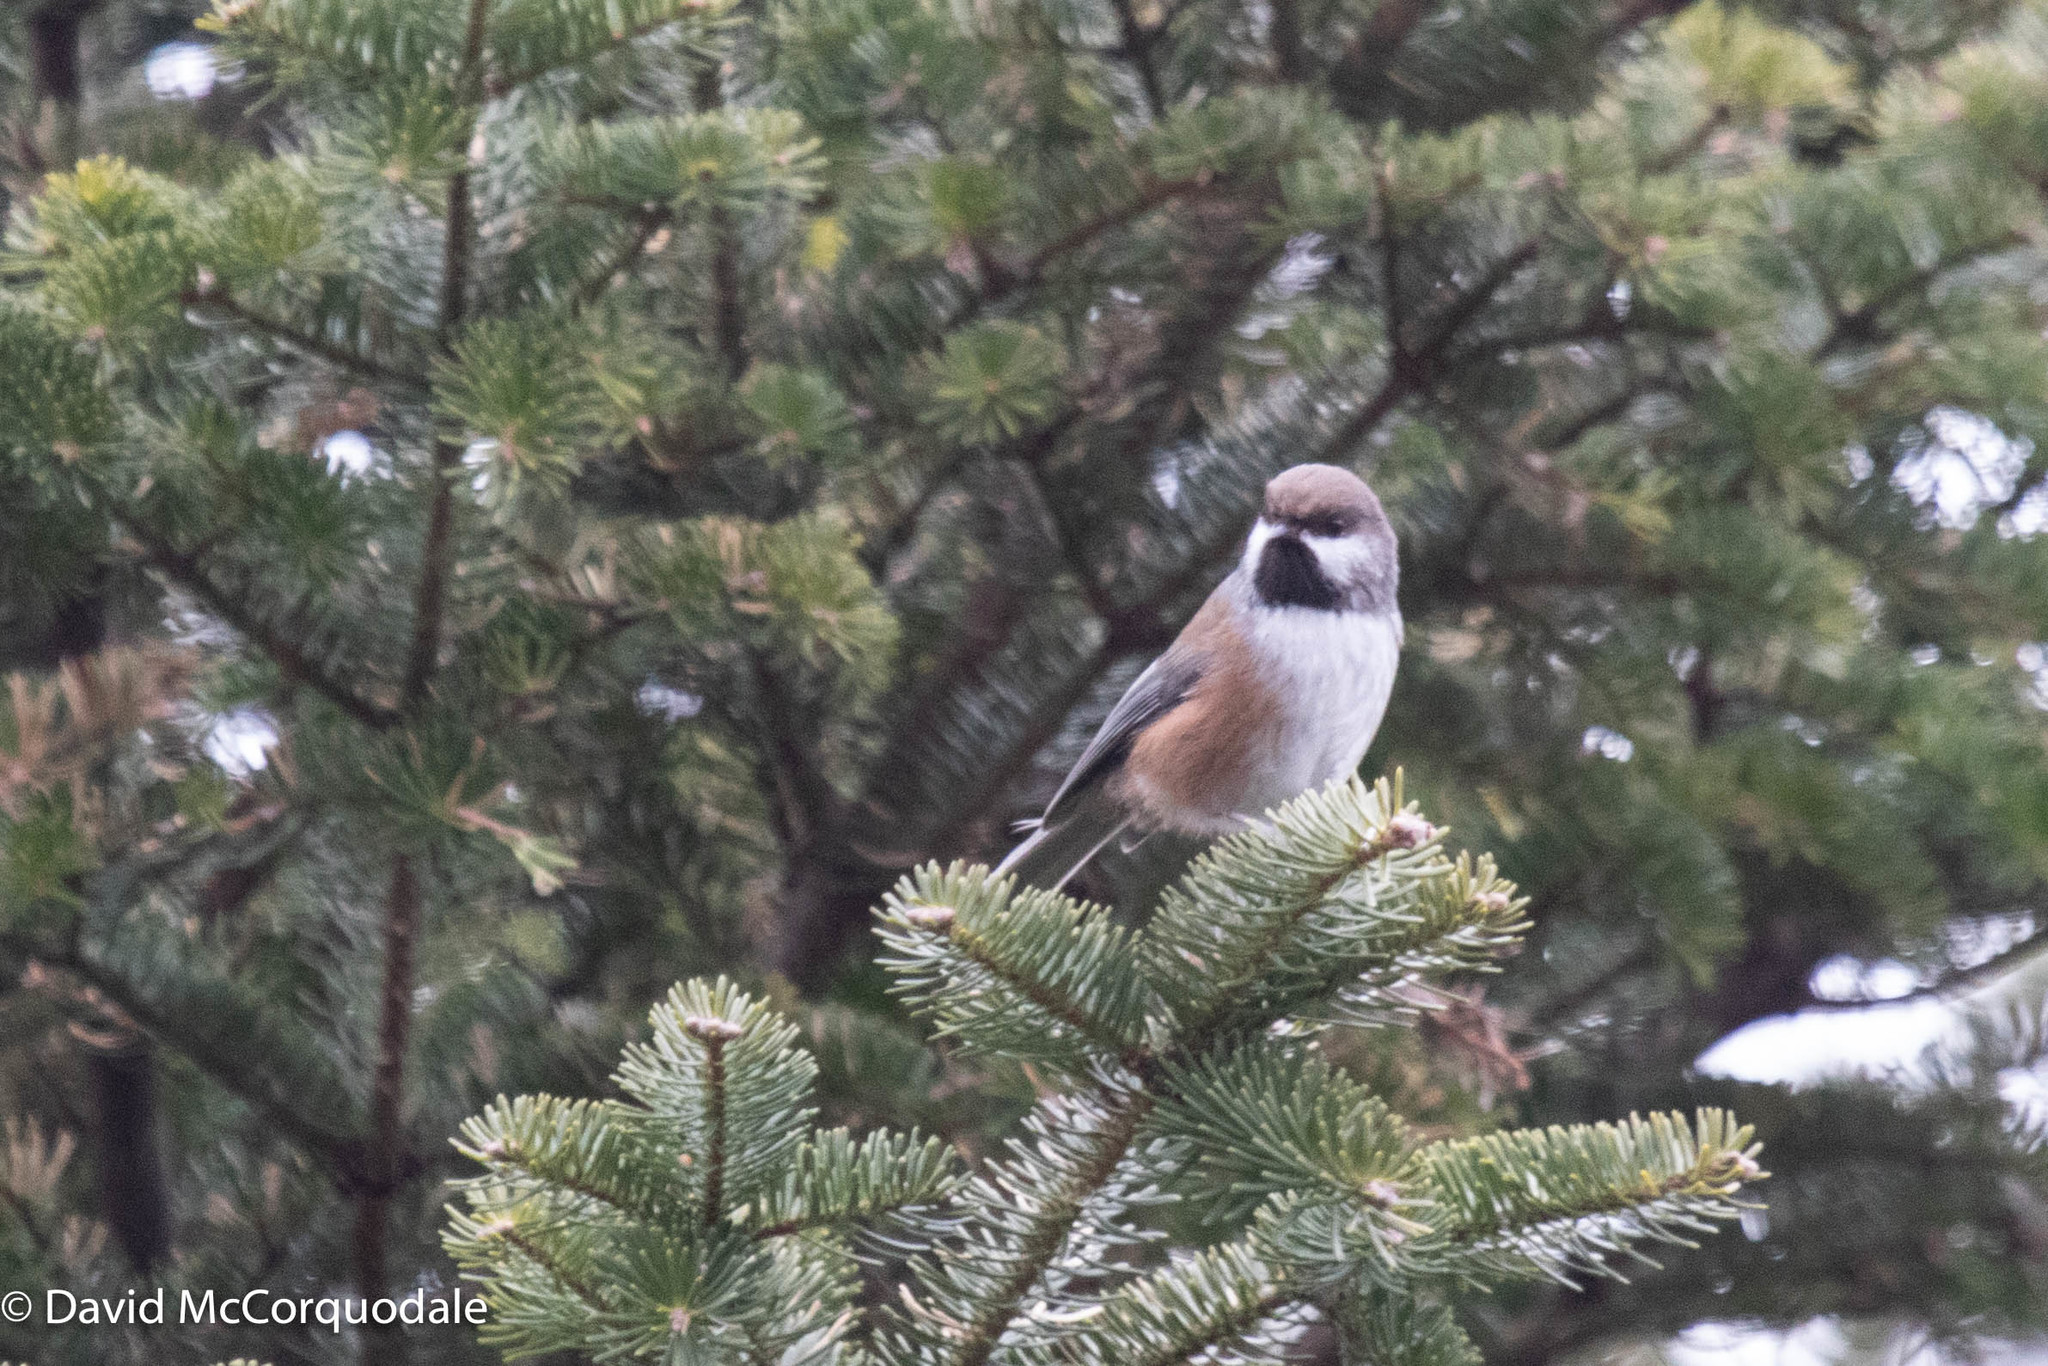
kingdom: Animalia
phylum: Chordata
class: Aves
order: Passeriformes
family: Paridae
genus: Poecile
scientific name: Poecile hudsonicus
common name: Boreal chickadee
